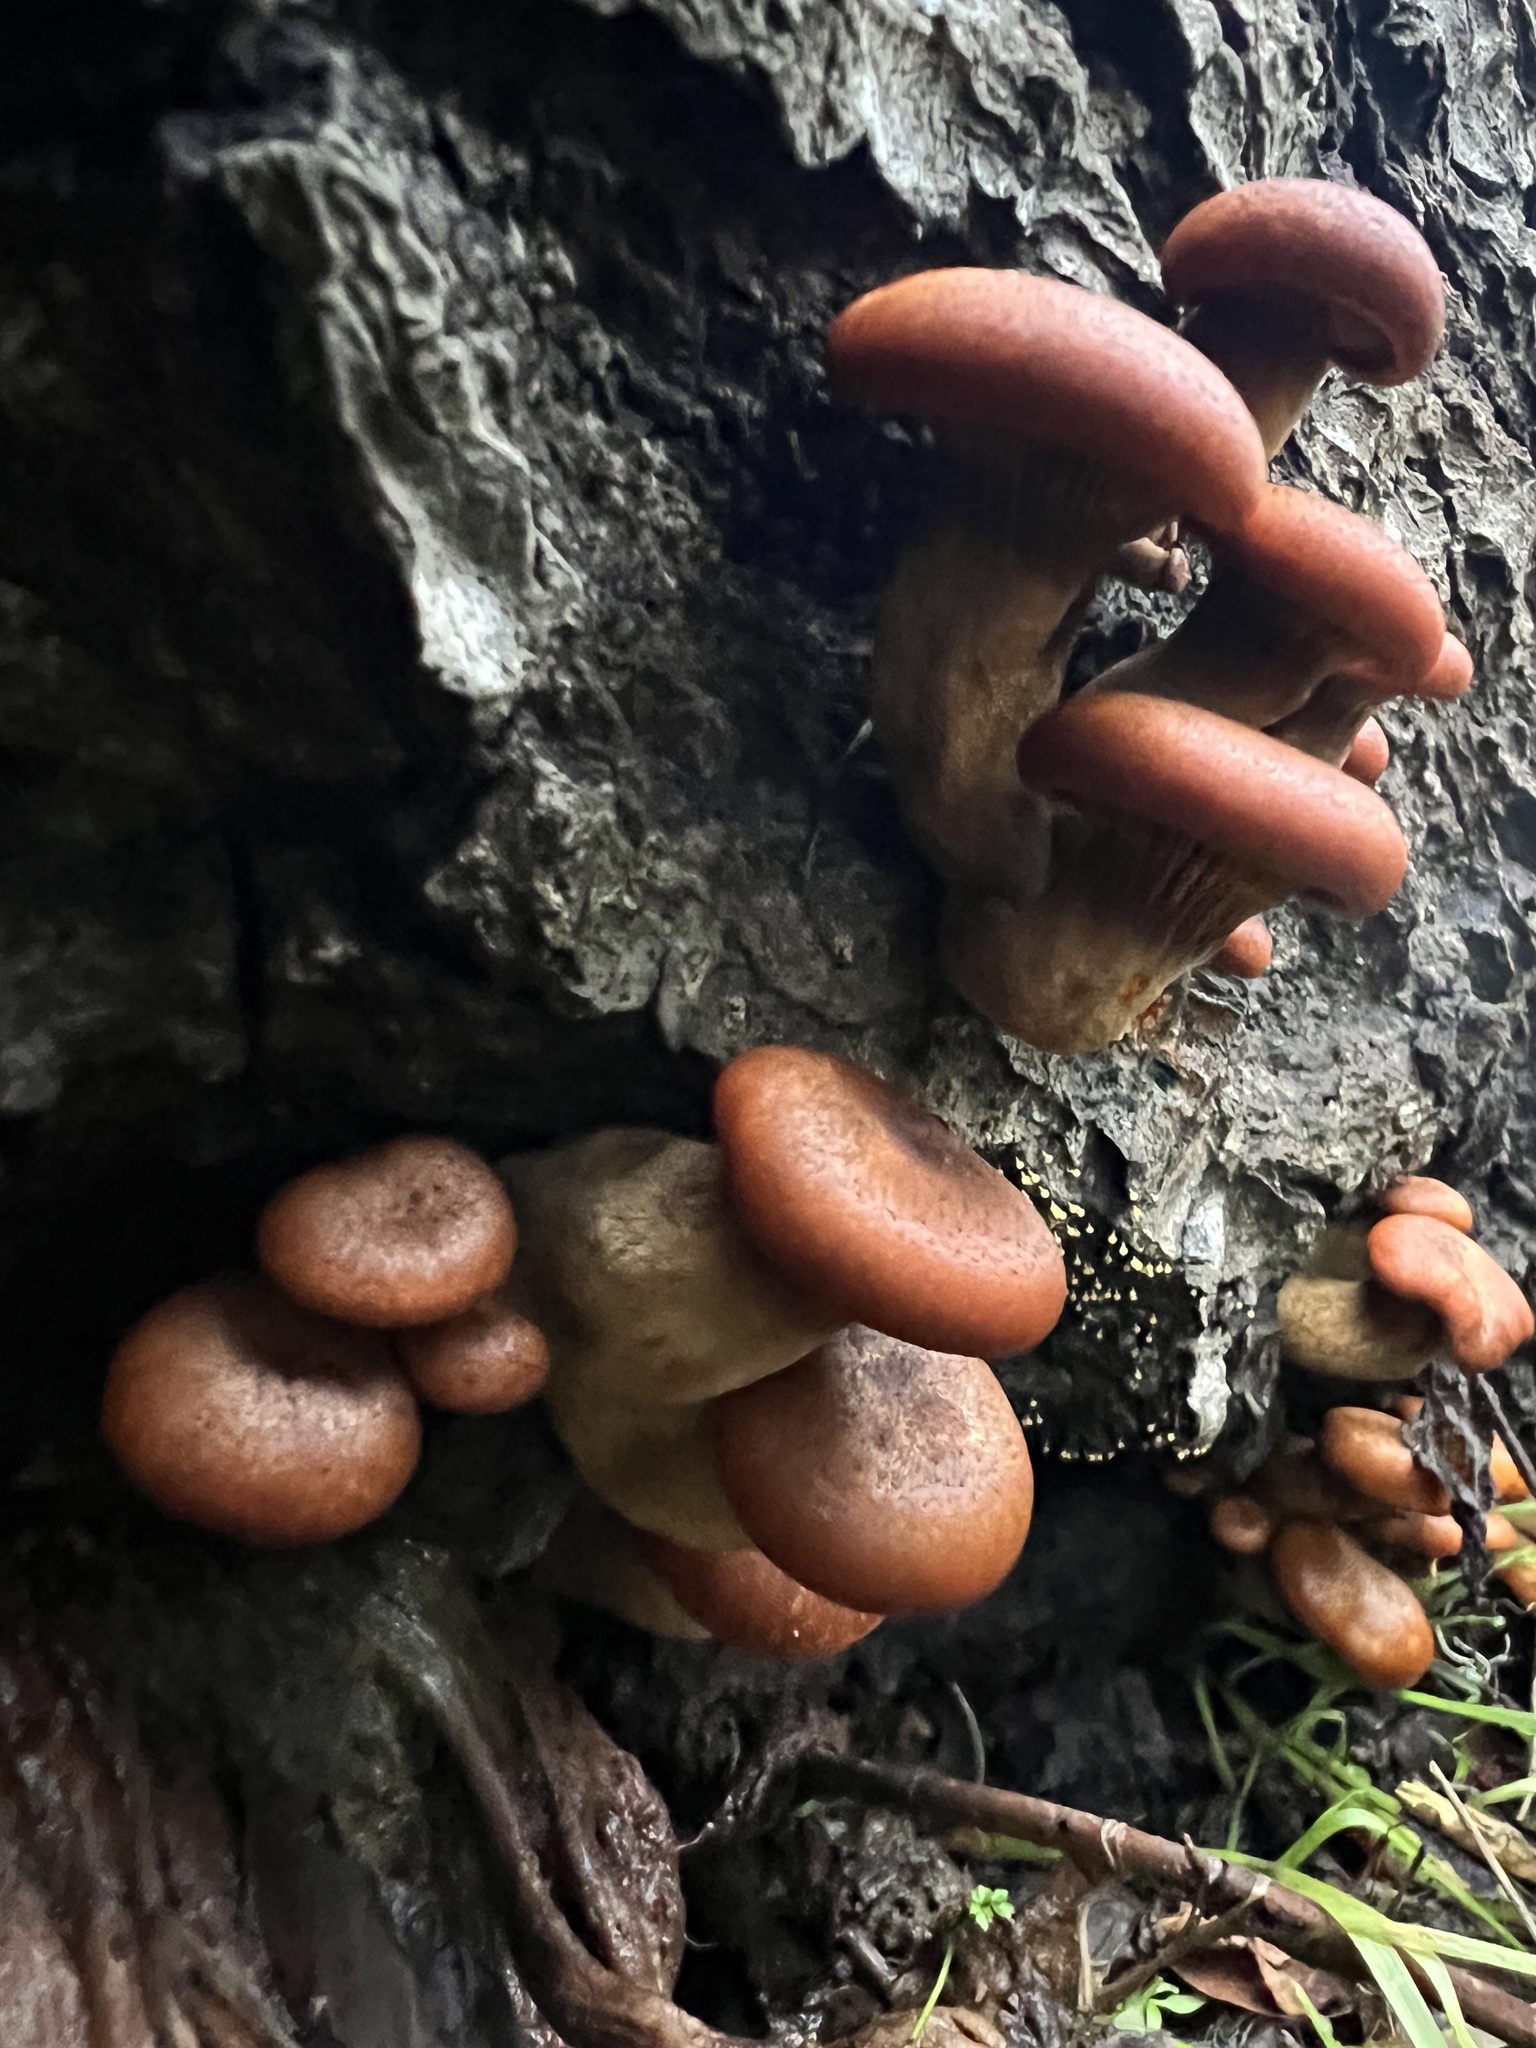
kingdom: Fungi
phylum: Basidiomycota
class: Agaricomycetes
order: Agaricales
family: Omphalotaceae
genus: Omphalotus
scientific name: Omphalotus olivascens
